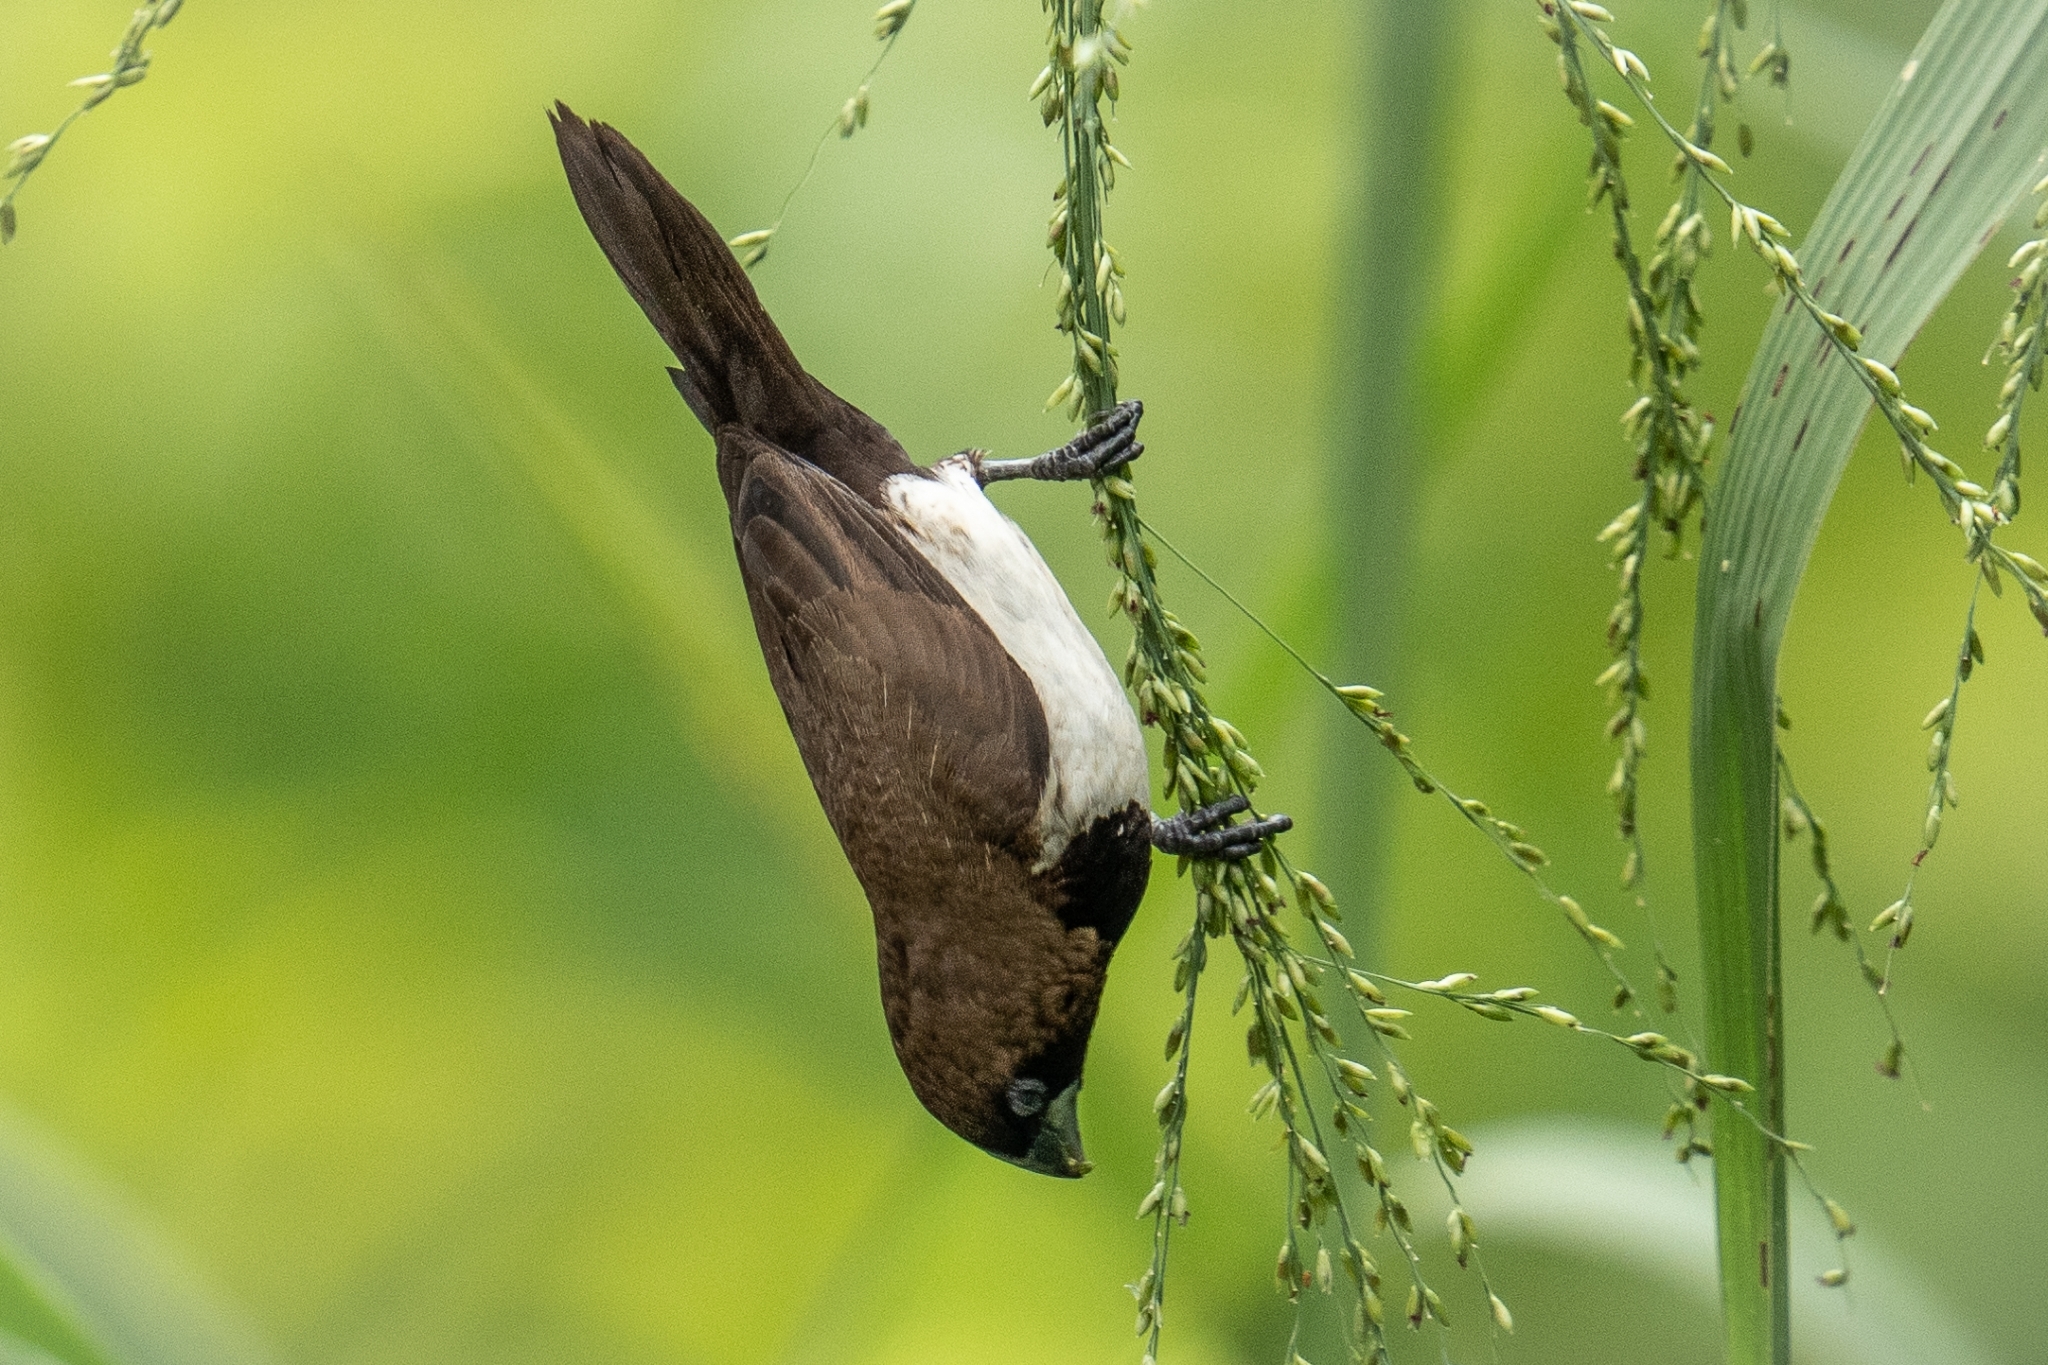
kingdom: Animalia
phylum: Chordata
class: Aves
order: Passeriformes
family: Estrildidae
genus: Lonchura
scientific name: Lonchura leucogastroides
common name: Javan munia
